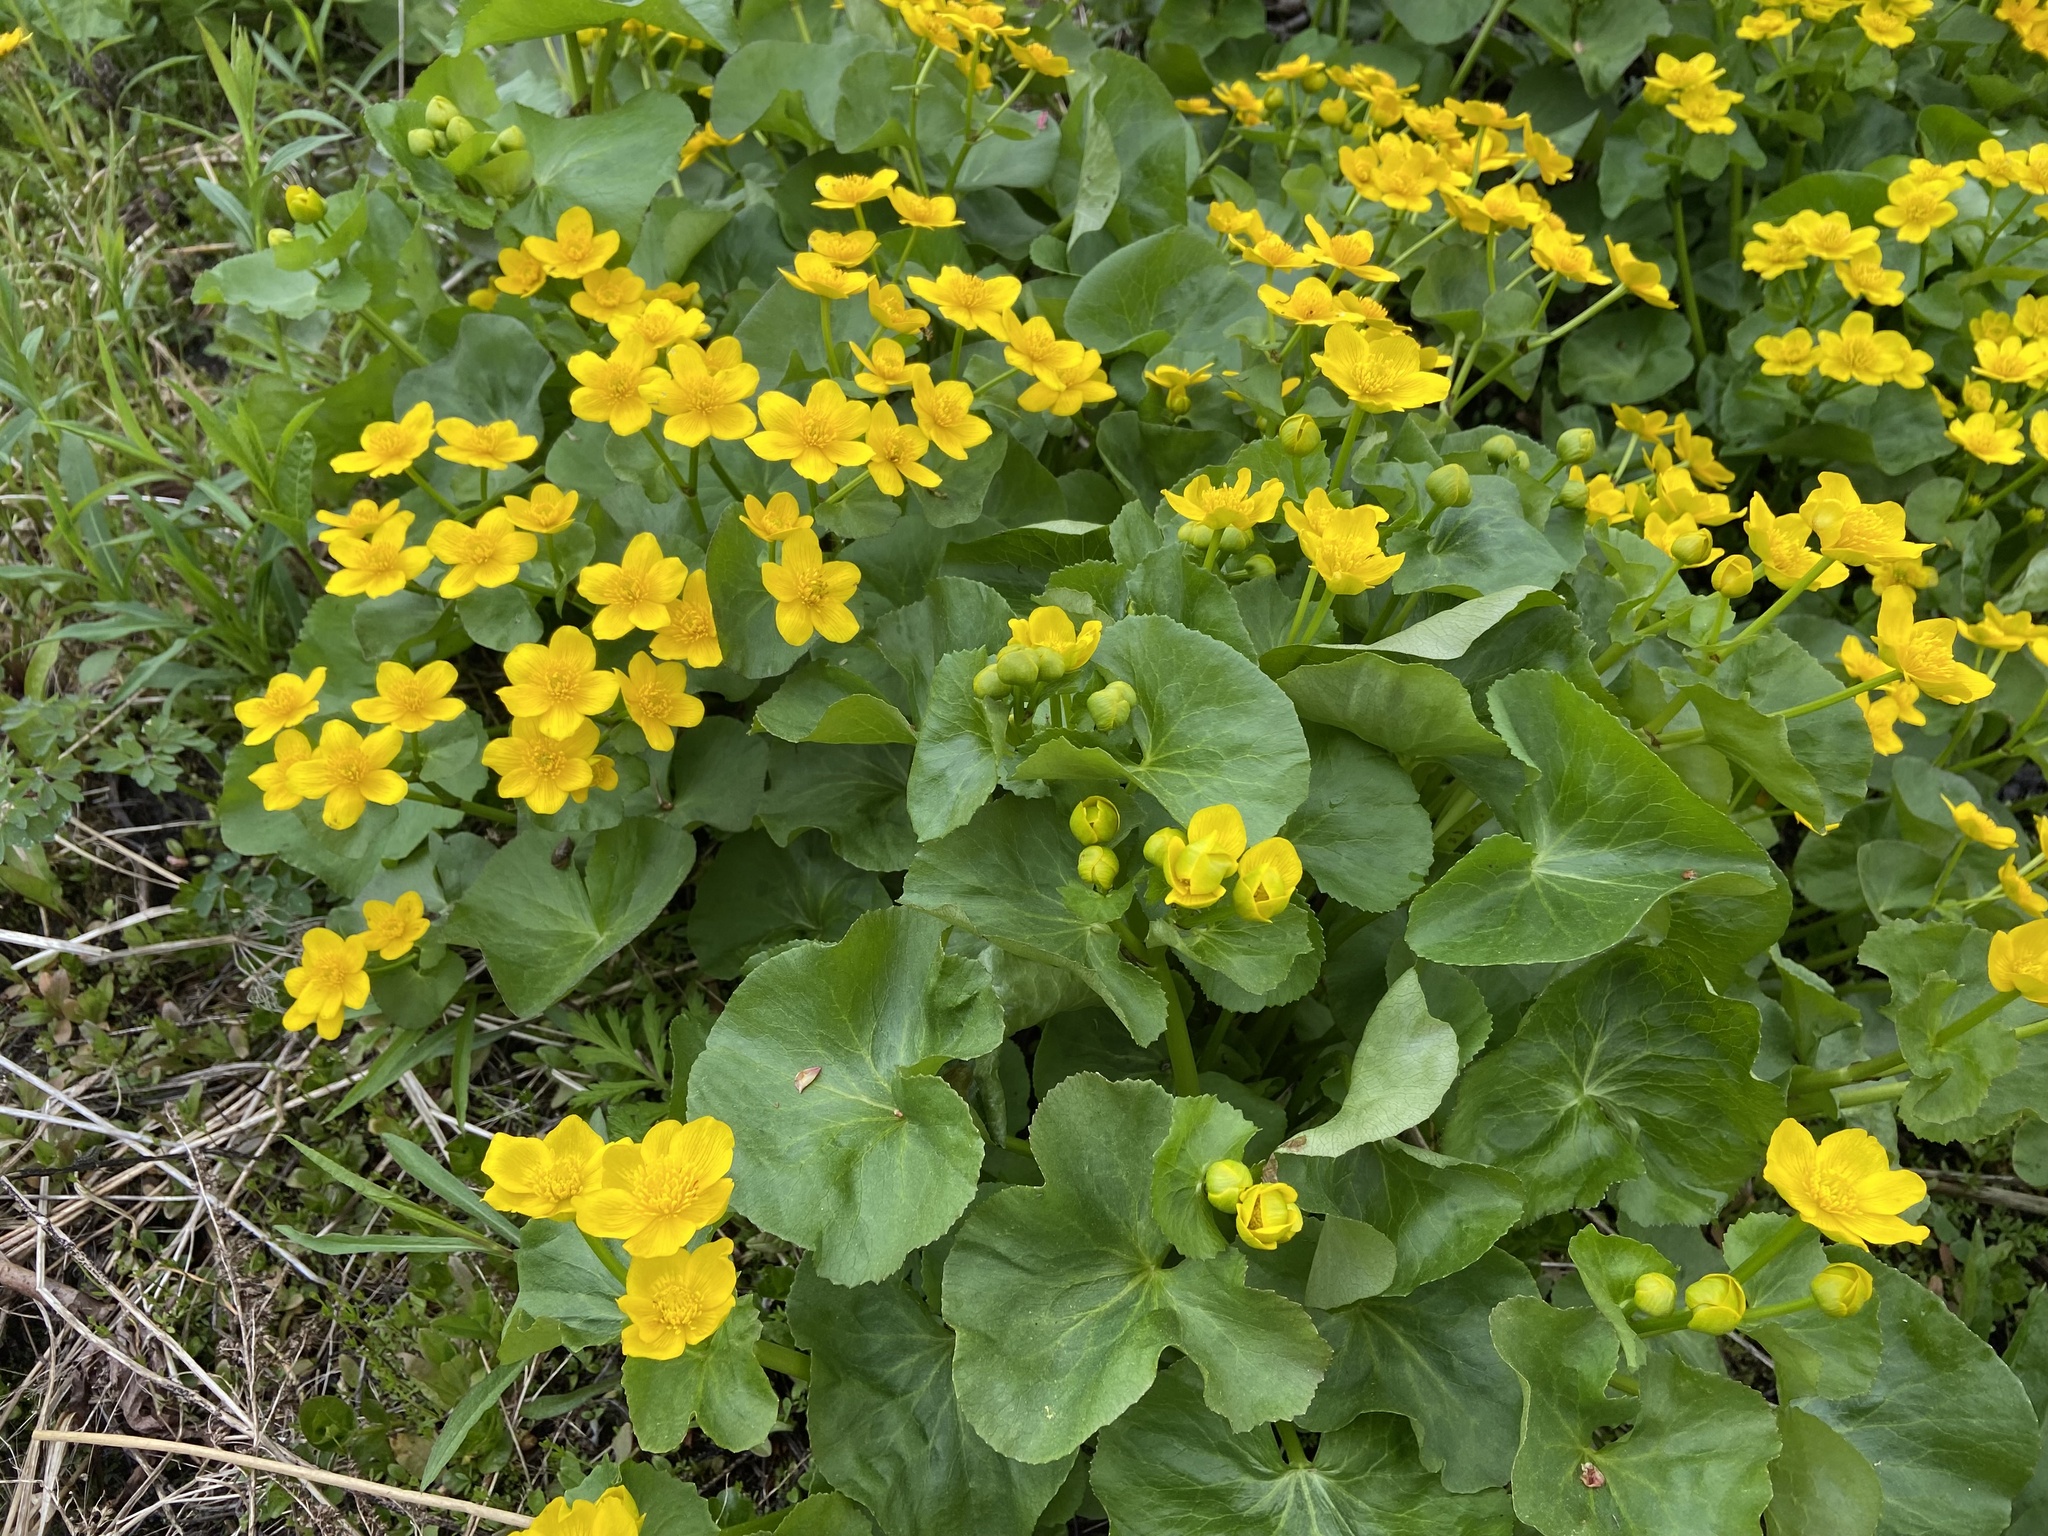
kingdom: Plantae
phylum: Tracheophyta
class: Magnoliopsida
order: Ranunculales
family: Ranunculaceae
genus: Caltha
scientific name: Caltha palustris
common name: Marsh marigold
